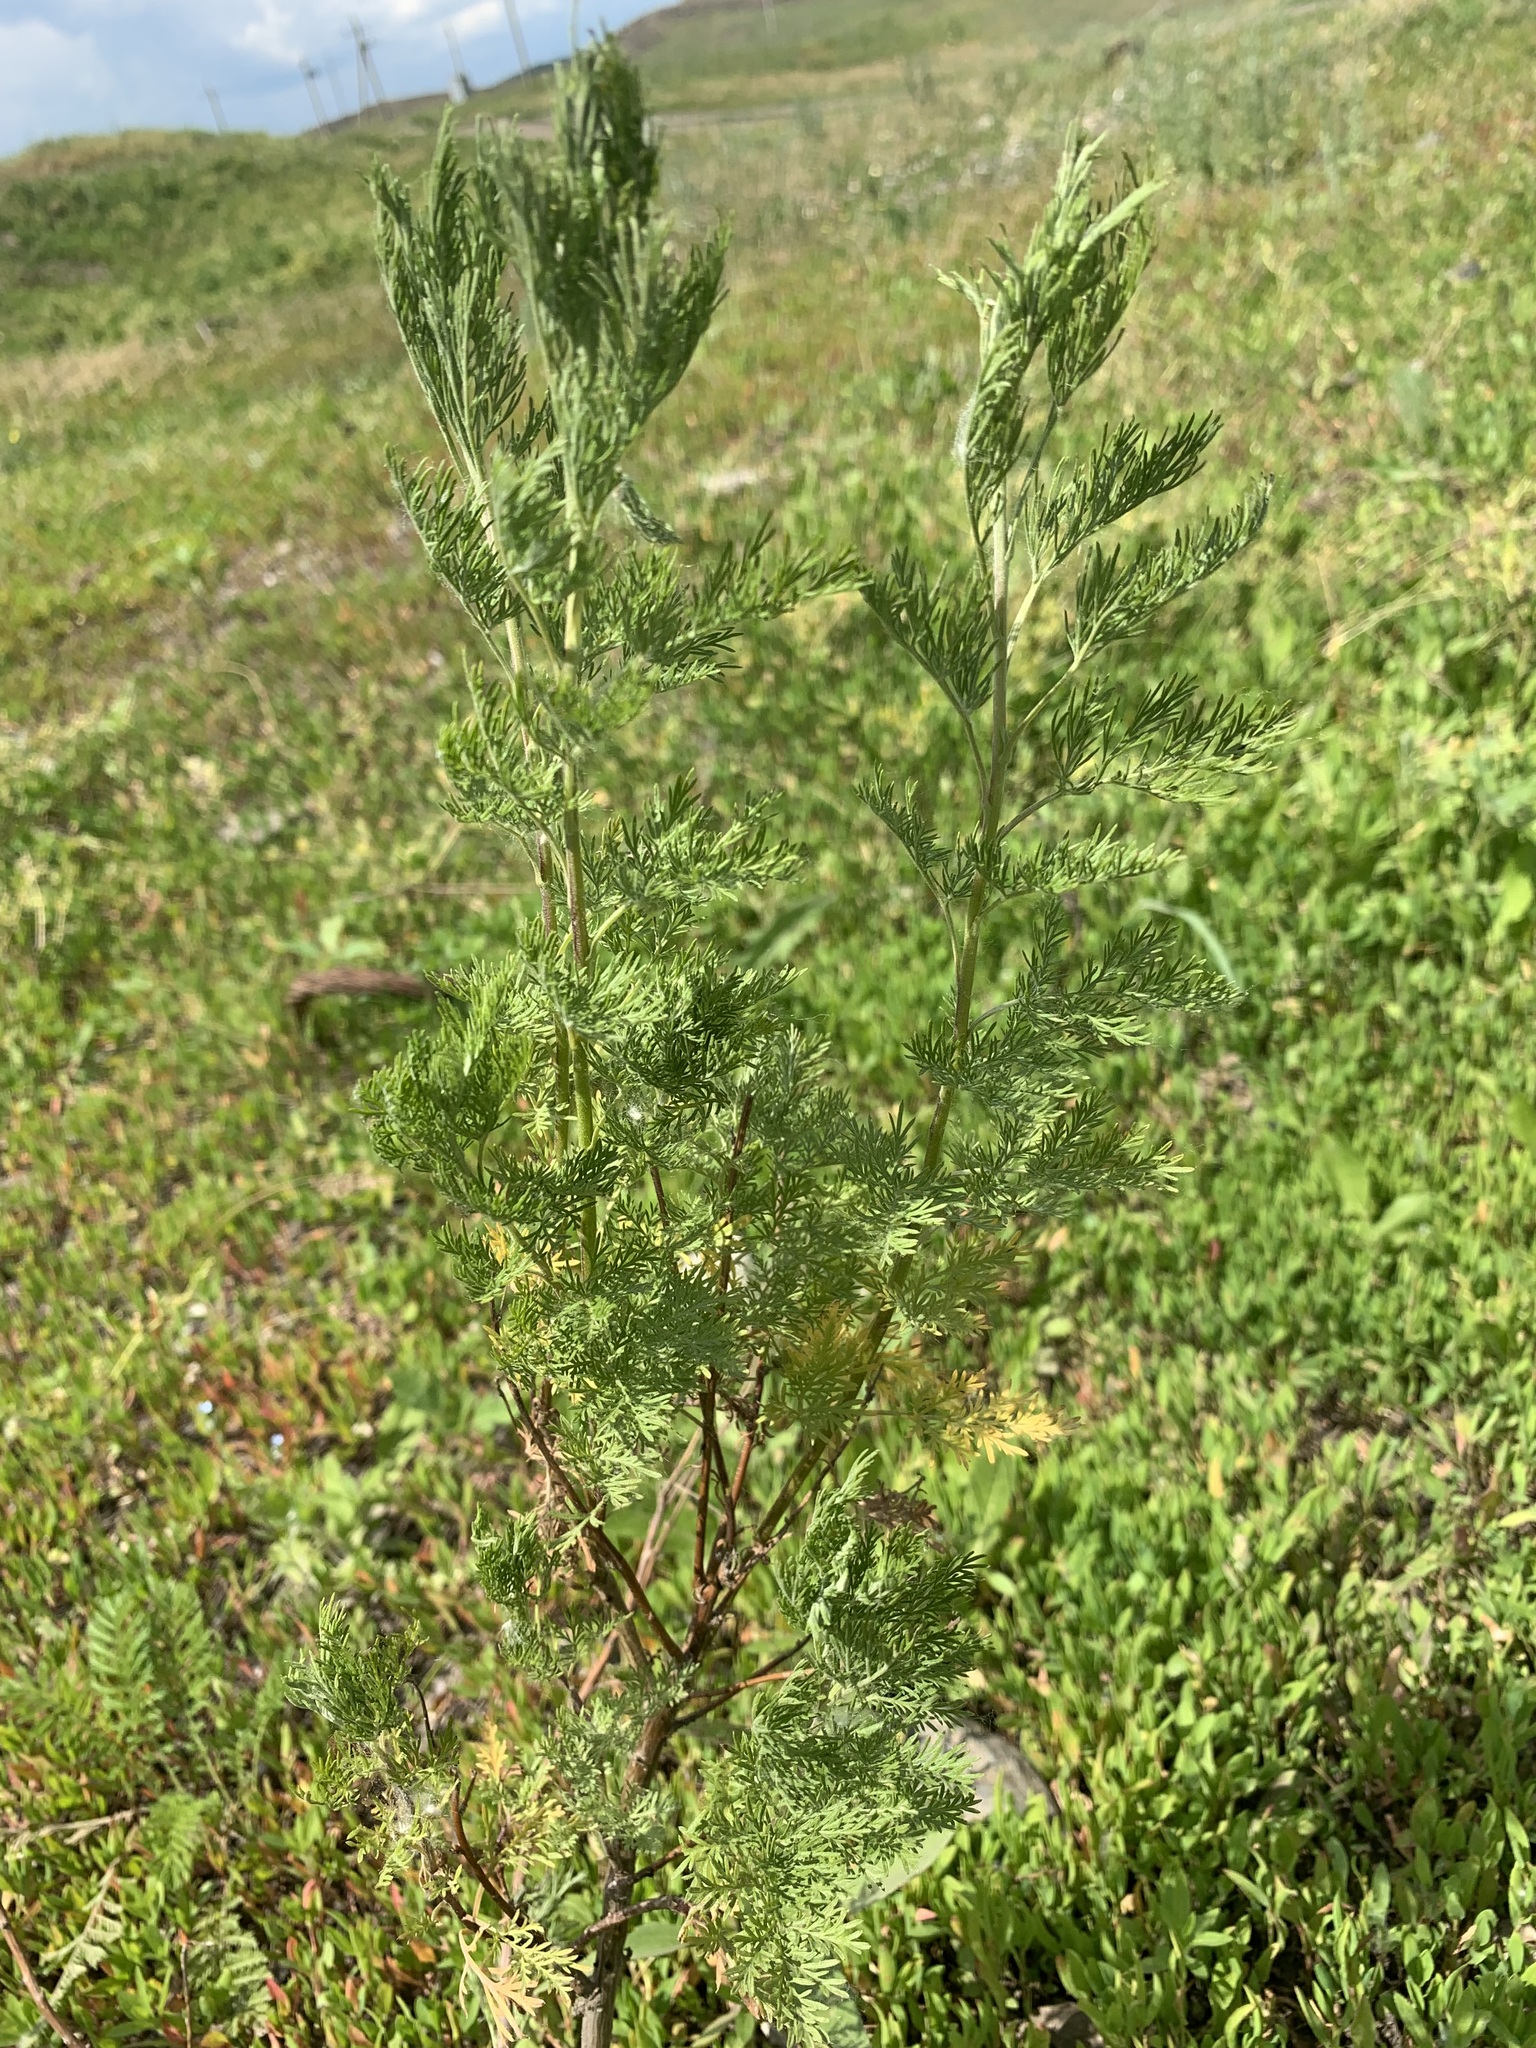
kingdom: Plantae
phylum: Tracheophyta
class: Magnoliopsida
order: Asterales
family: Asteraceae
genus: Artemisia
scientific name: Artemisia abrotanum
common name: Southernwood
